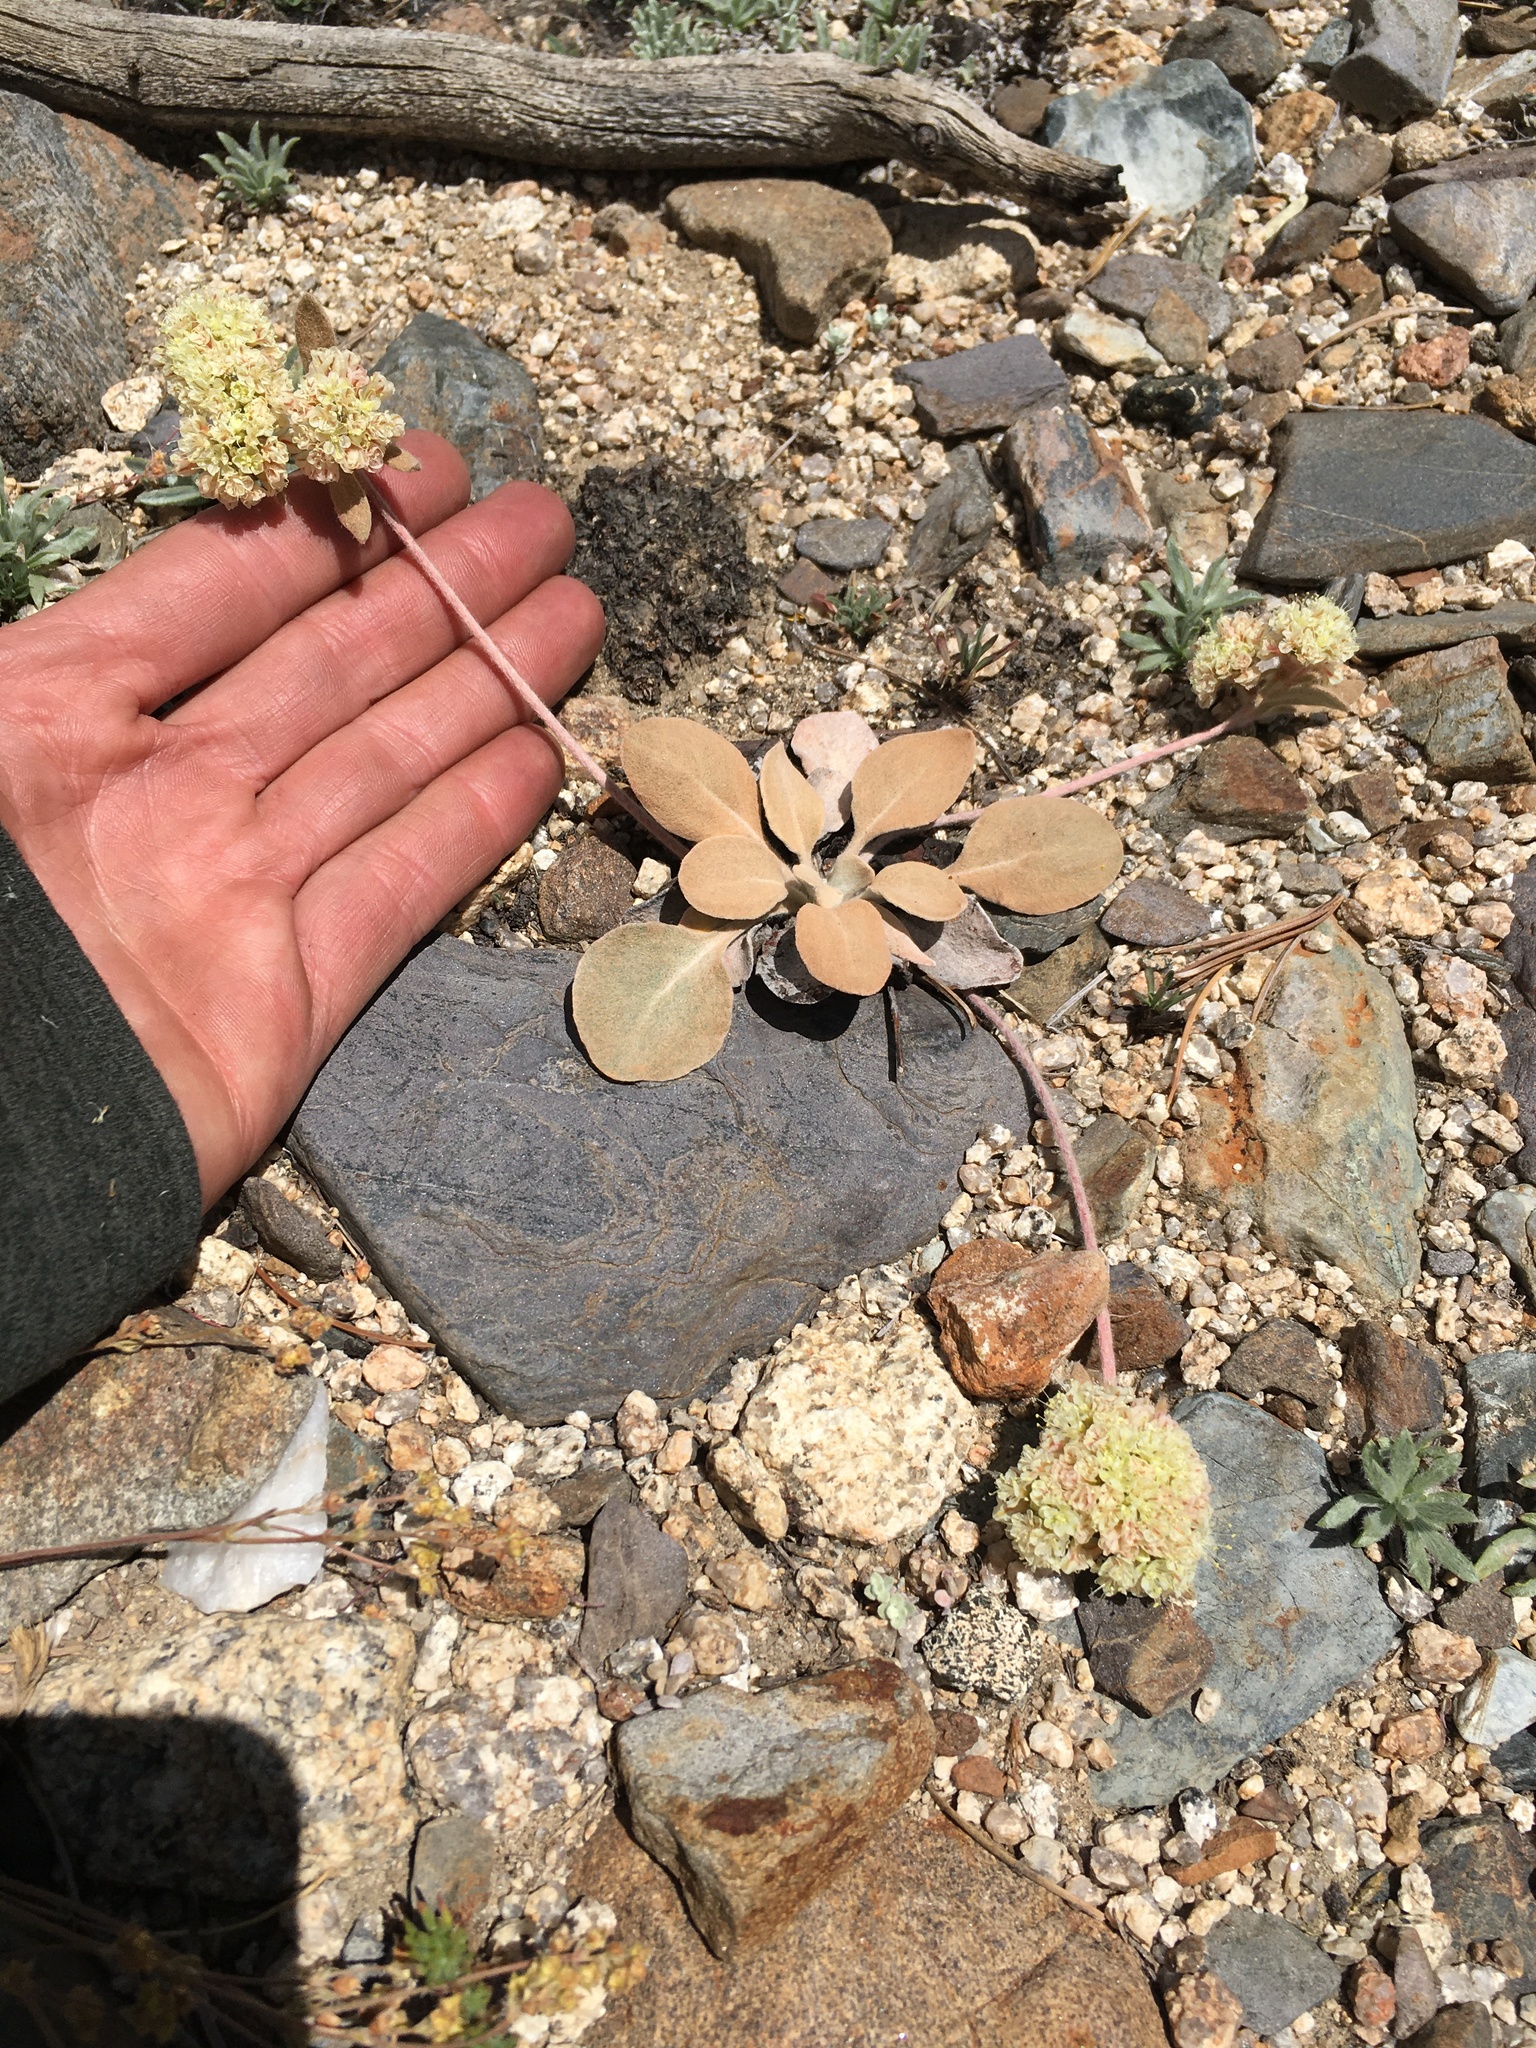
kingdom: Plantae
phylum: Tracheophyta
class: Magnoliopsida
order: Caryophyllales
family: Polygonaceae
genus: Eriogonum
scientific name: Eriogonum lobbii
